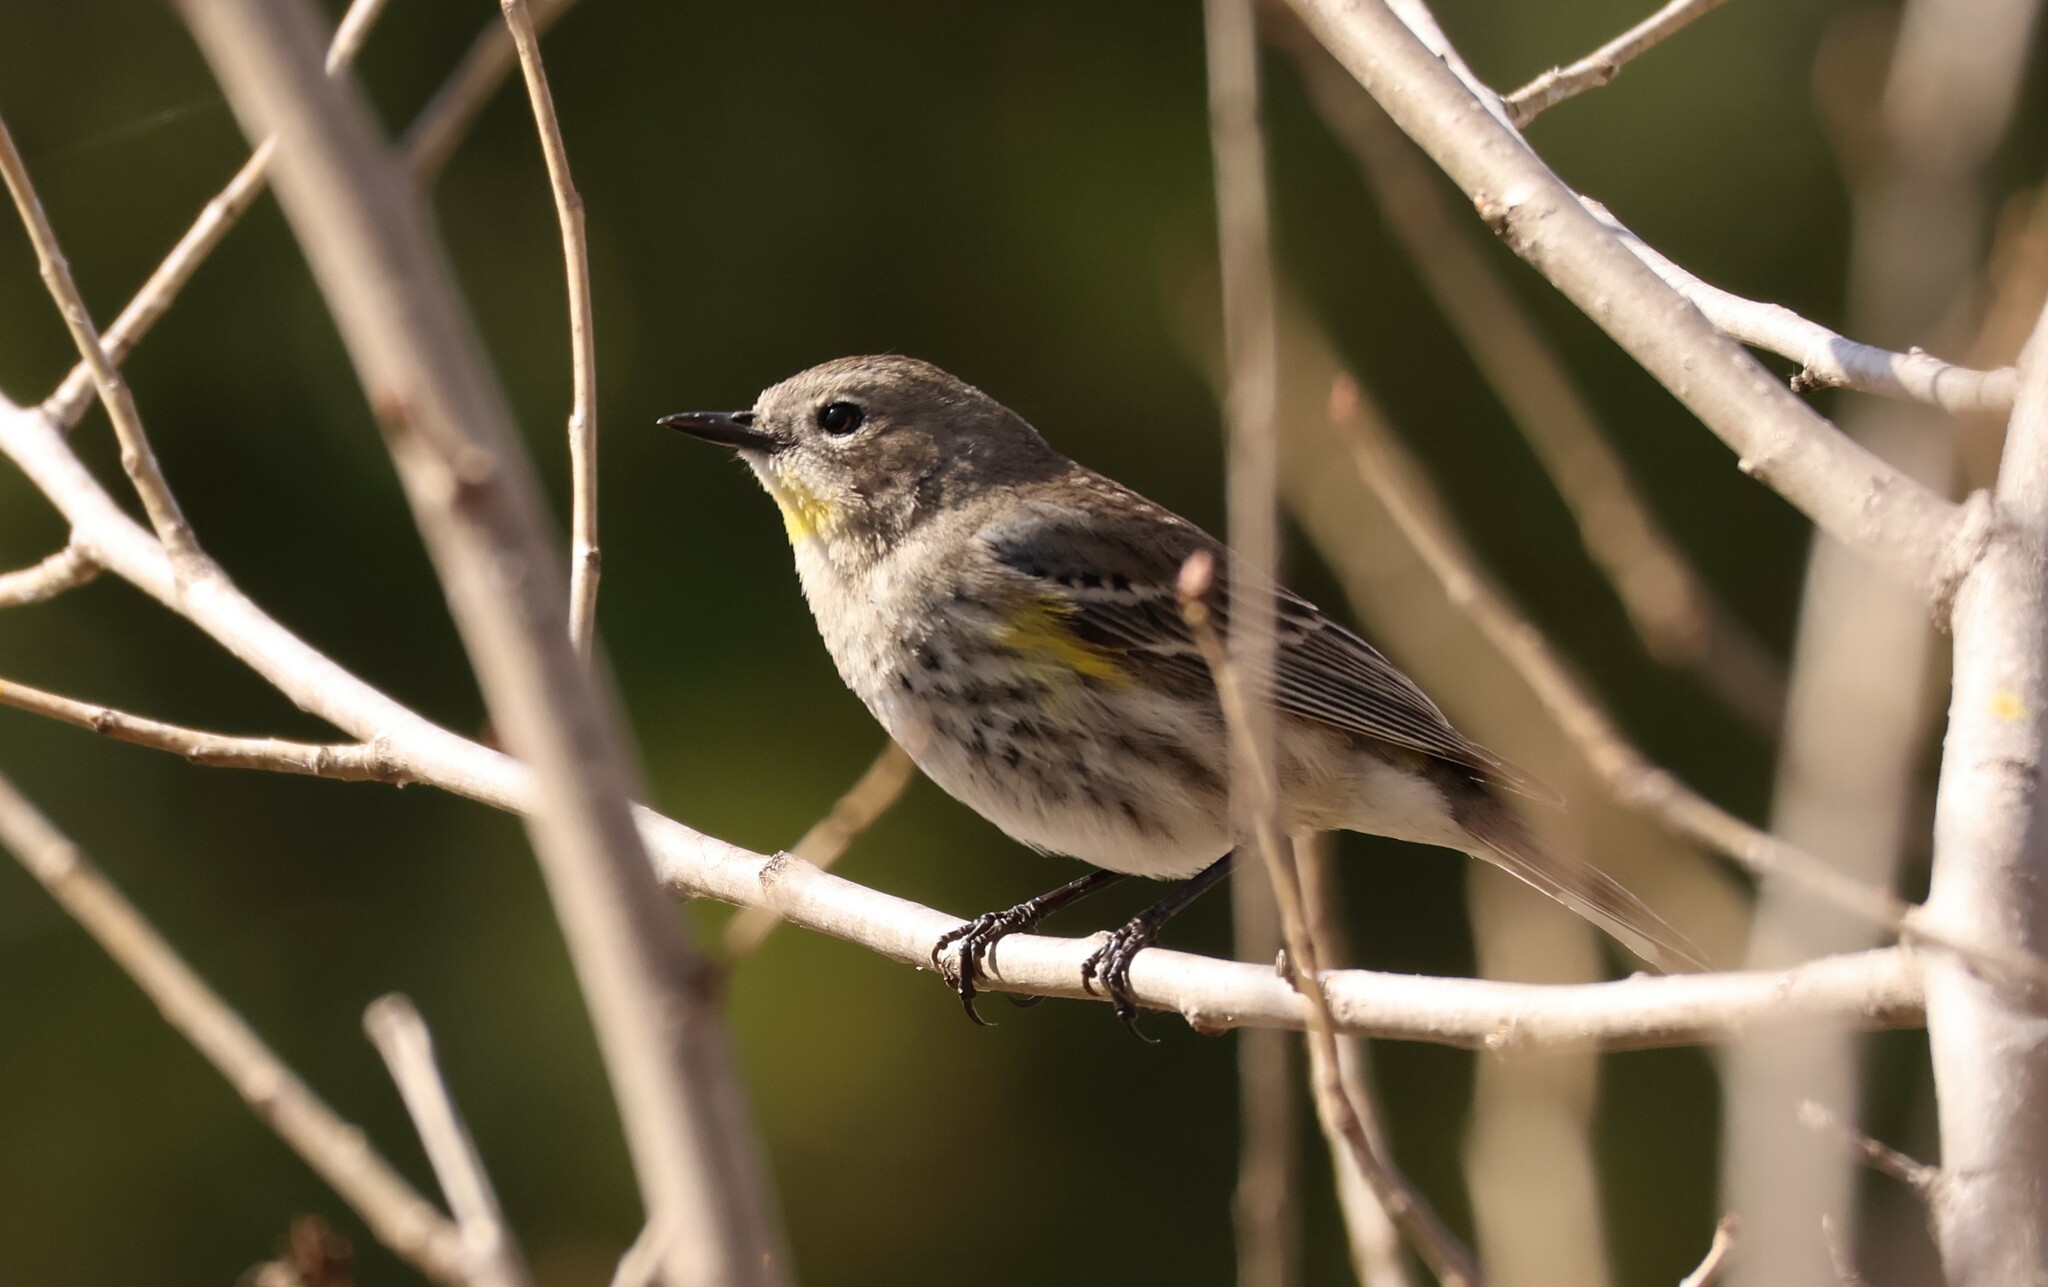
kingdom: Animalia
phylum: Chordata
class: Aves
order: Passeriformes
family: Parulidae
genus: Setophaga
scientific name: Setophaga auduboni
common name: Audubon's warbler
